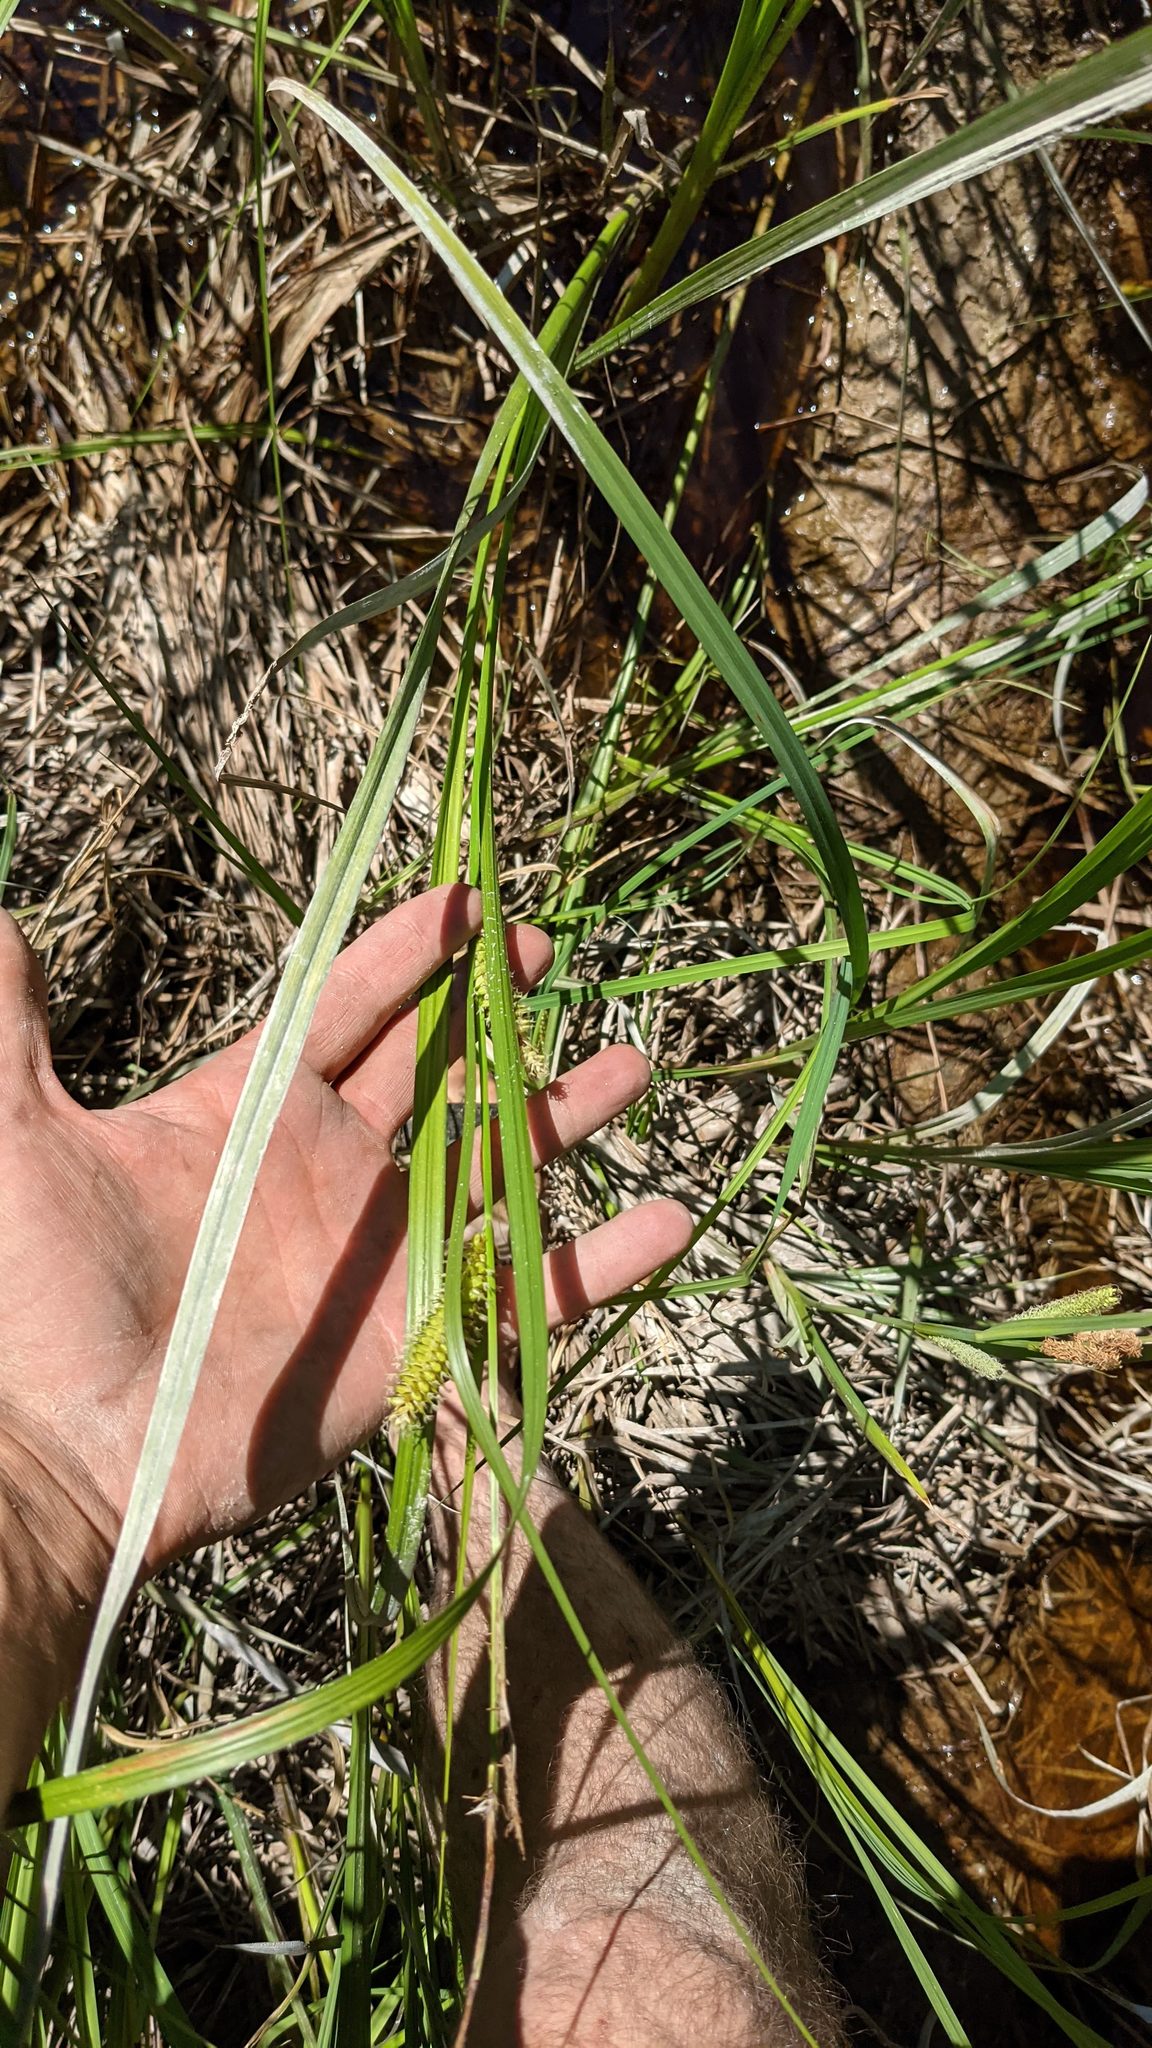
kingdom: Plantae
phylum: Tracheophyta
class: Liliopsida
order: Poales
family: Cyperaceae
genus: Carex
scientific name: Carex utriculata
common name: Beaked sedge
